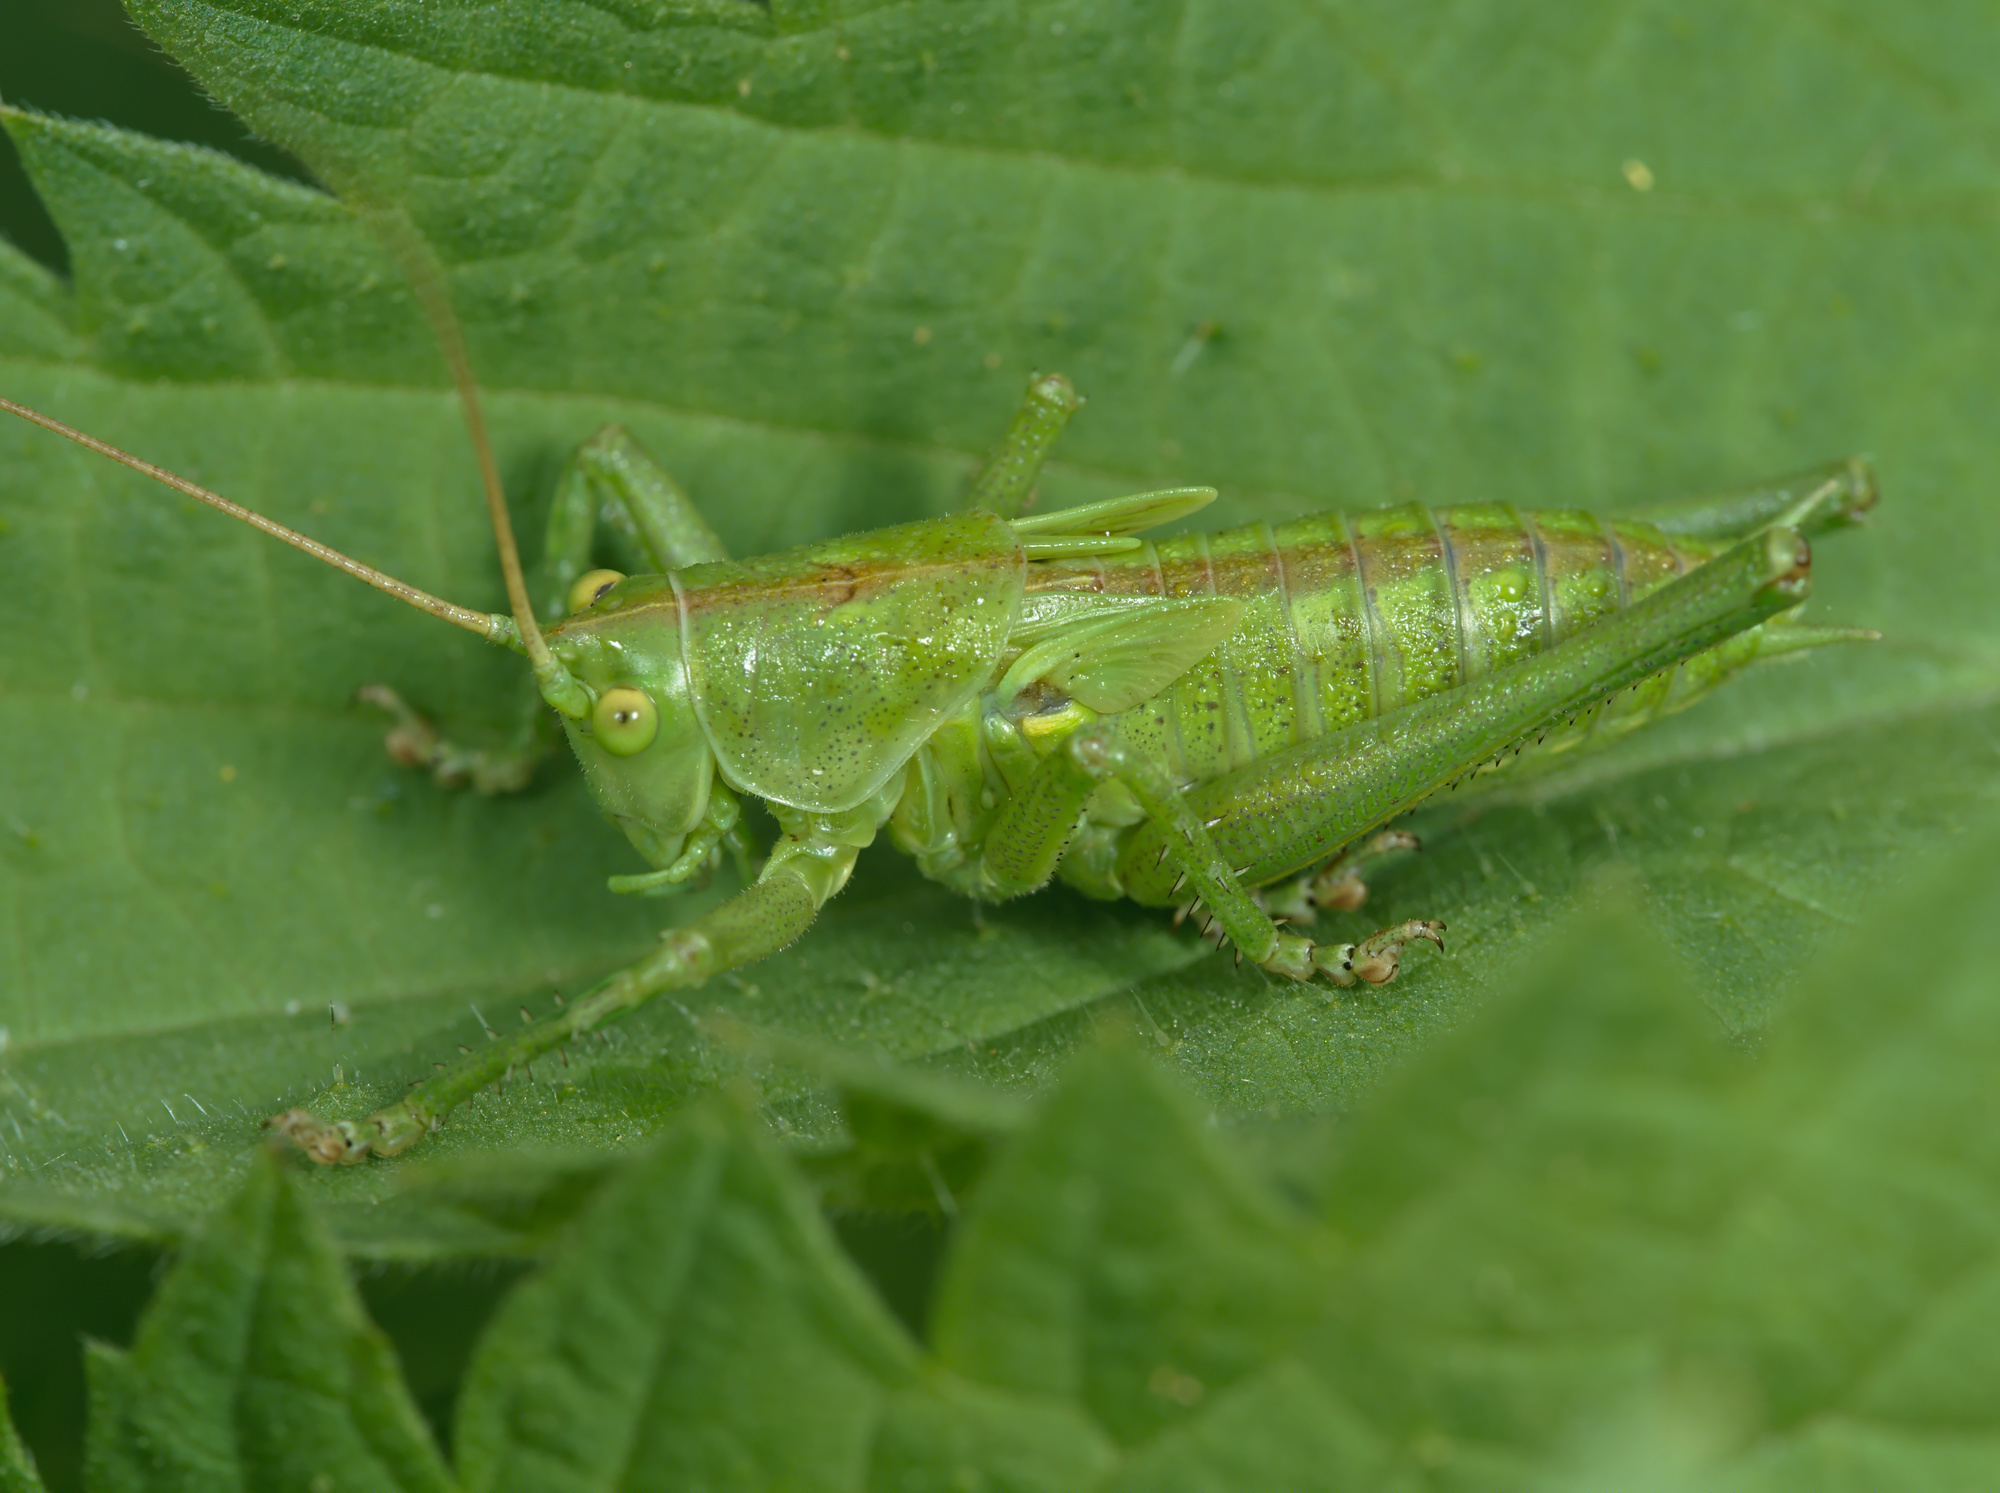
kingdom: Animalia
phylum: Arthropoda
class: Insecta
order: Orthoptera
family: Tettigoniidae
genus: Tettigonia
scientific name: Tettigonia viridissima
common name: Great green bush-cricket
